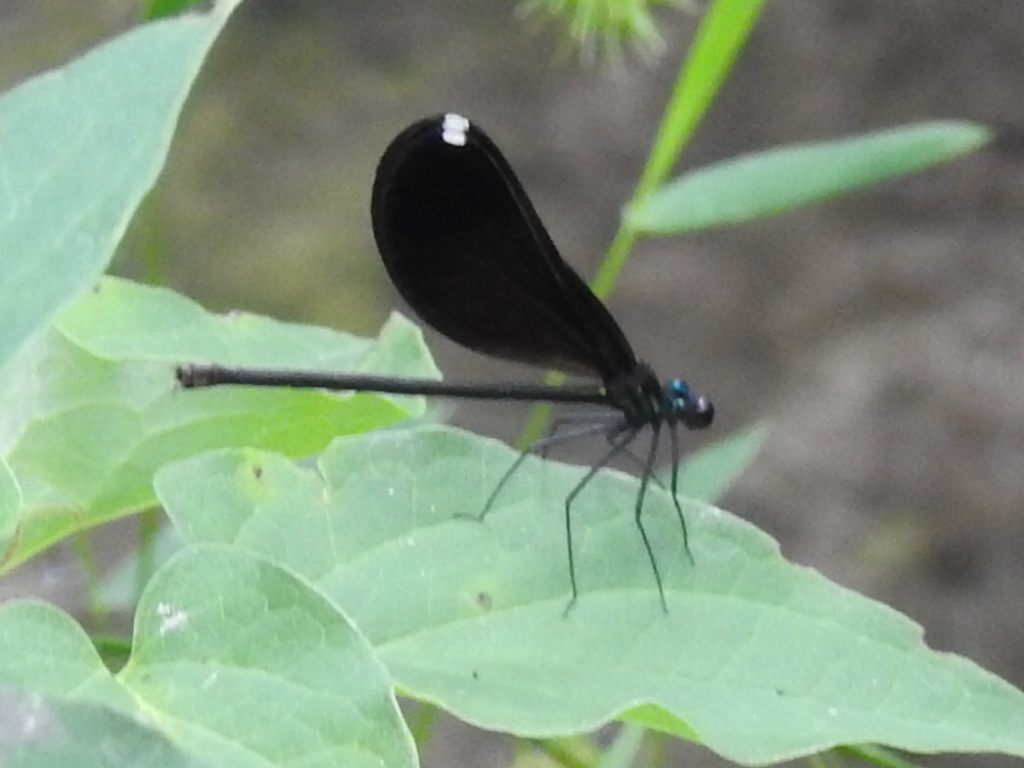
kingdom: Animalia
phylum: Arthropoda
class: Insecta
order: Odonata
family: Calopterygidae
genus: Calopteryx
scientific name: Calopteryx maculata
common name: Ebony jewelwing
